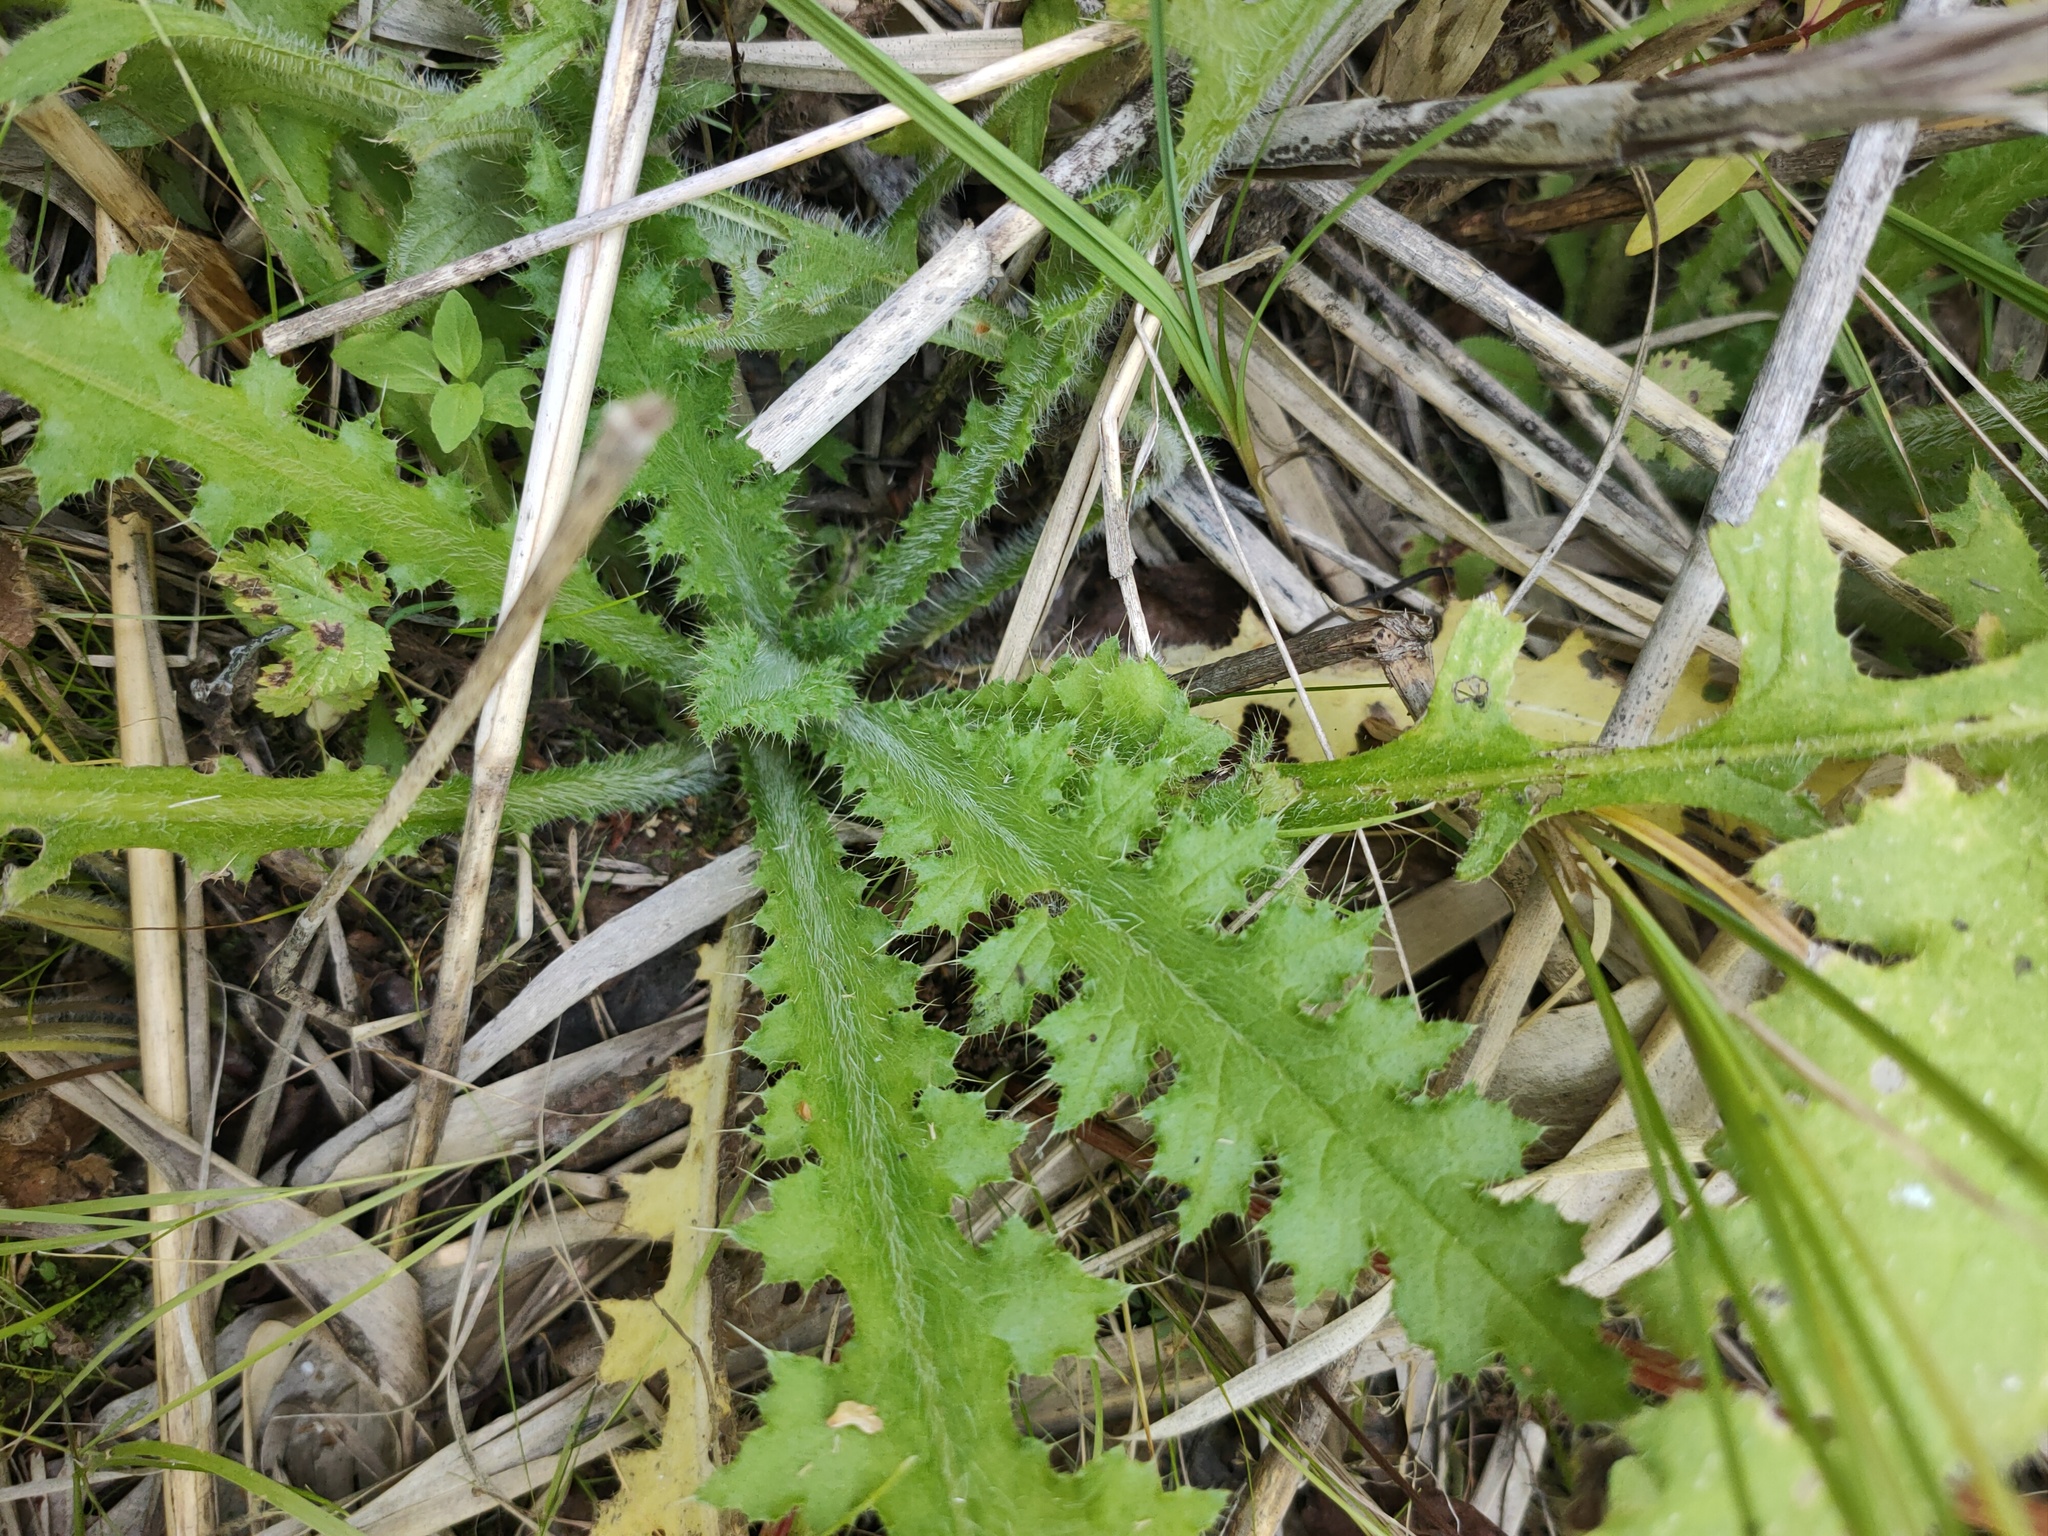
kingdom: Plantae
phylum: Tracheophyta
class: Magnoliopsida
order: Asterales
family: Asteraceae
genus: Cirsium
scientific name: Cirsium palustre
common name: Marsh thistle
